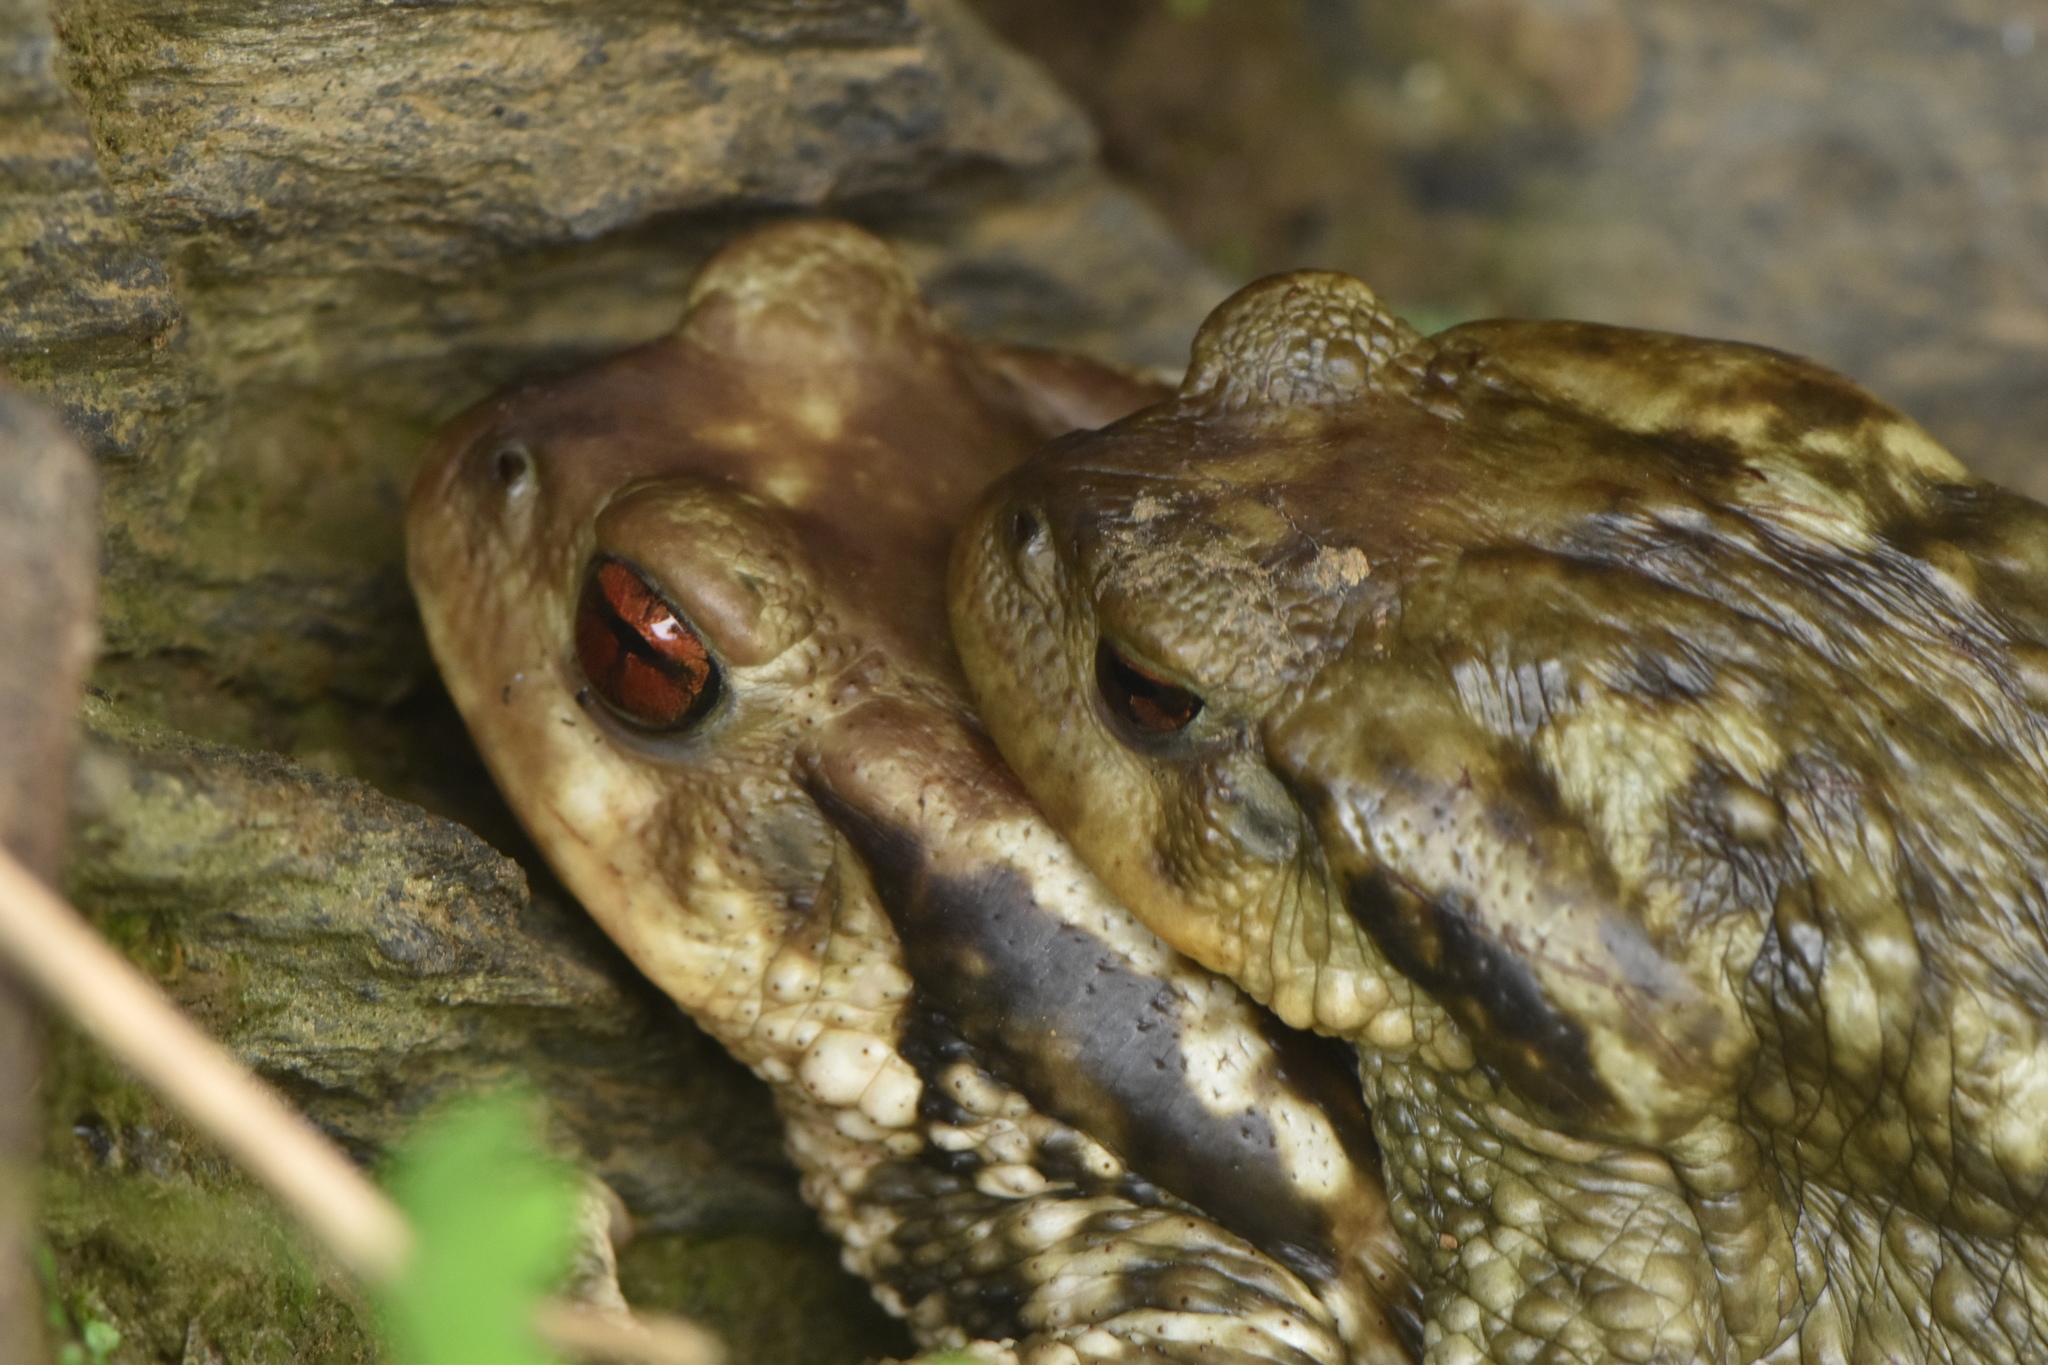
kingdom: Animalia
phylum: Chordata
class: Amphibia
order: Anura
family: Bufonidae
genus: Bufo
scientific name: Bufo spinosus
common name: Western common toad
